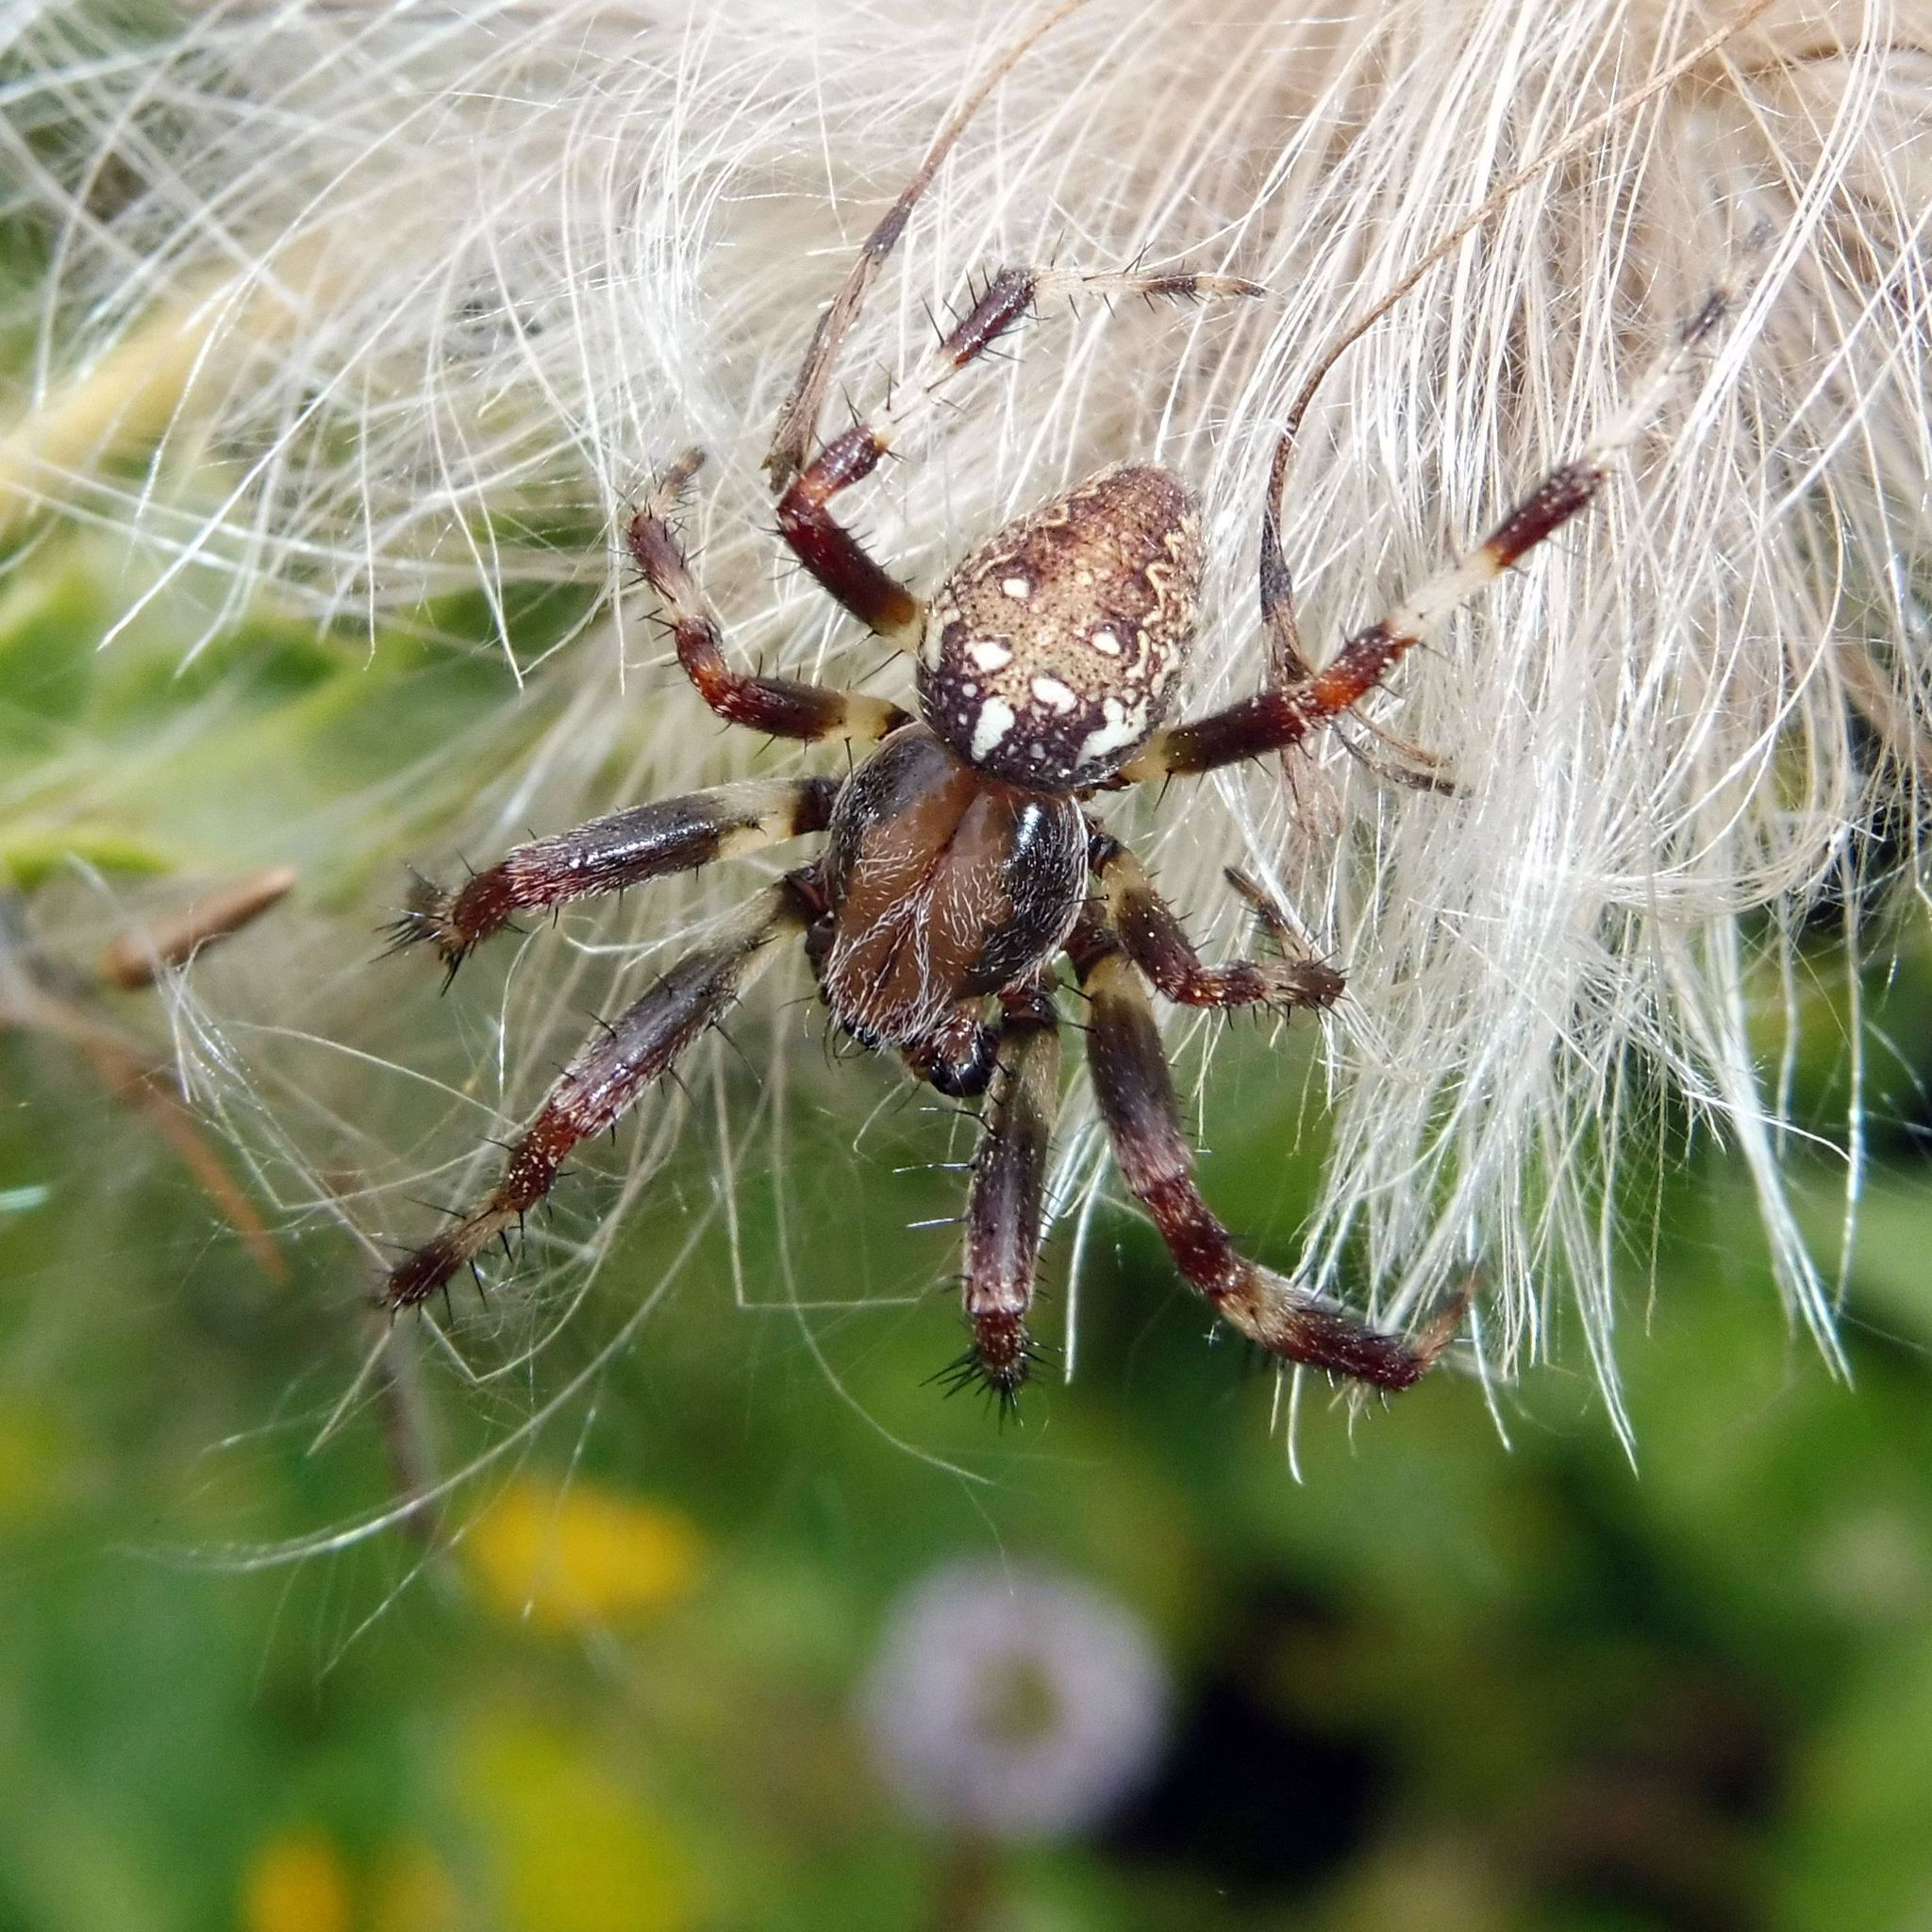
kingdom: Animalia
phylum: Arthropoda
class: Arachnida
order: Araneae
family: Araneidae
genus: Araneus
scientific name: Araneus marmoreus
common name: Marbled orbweaver
